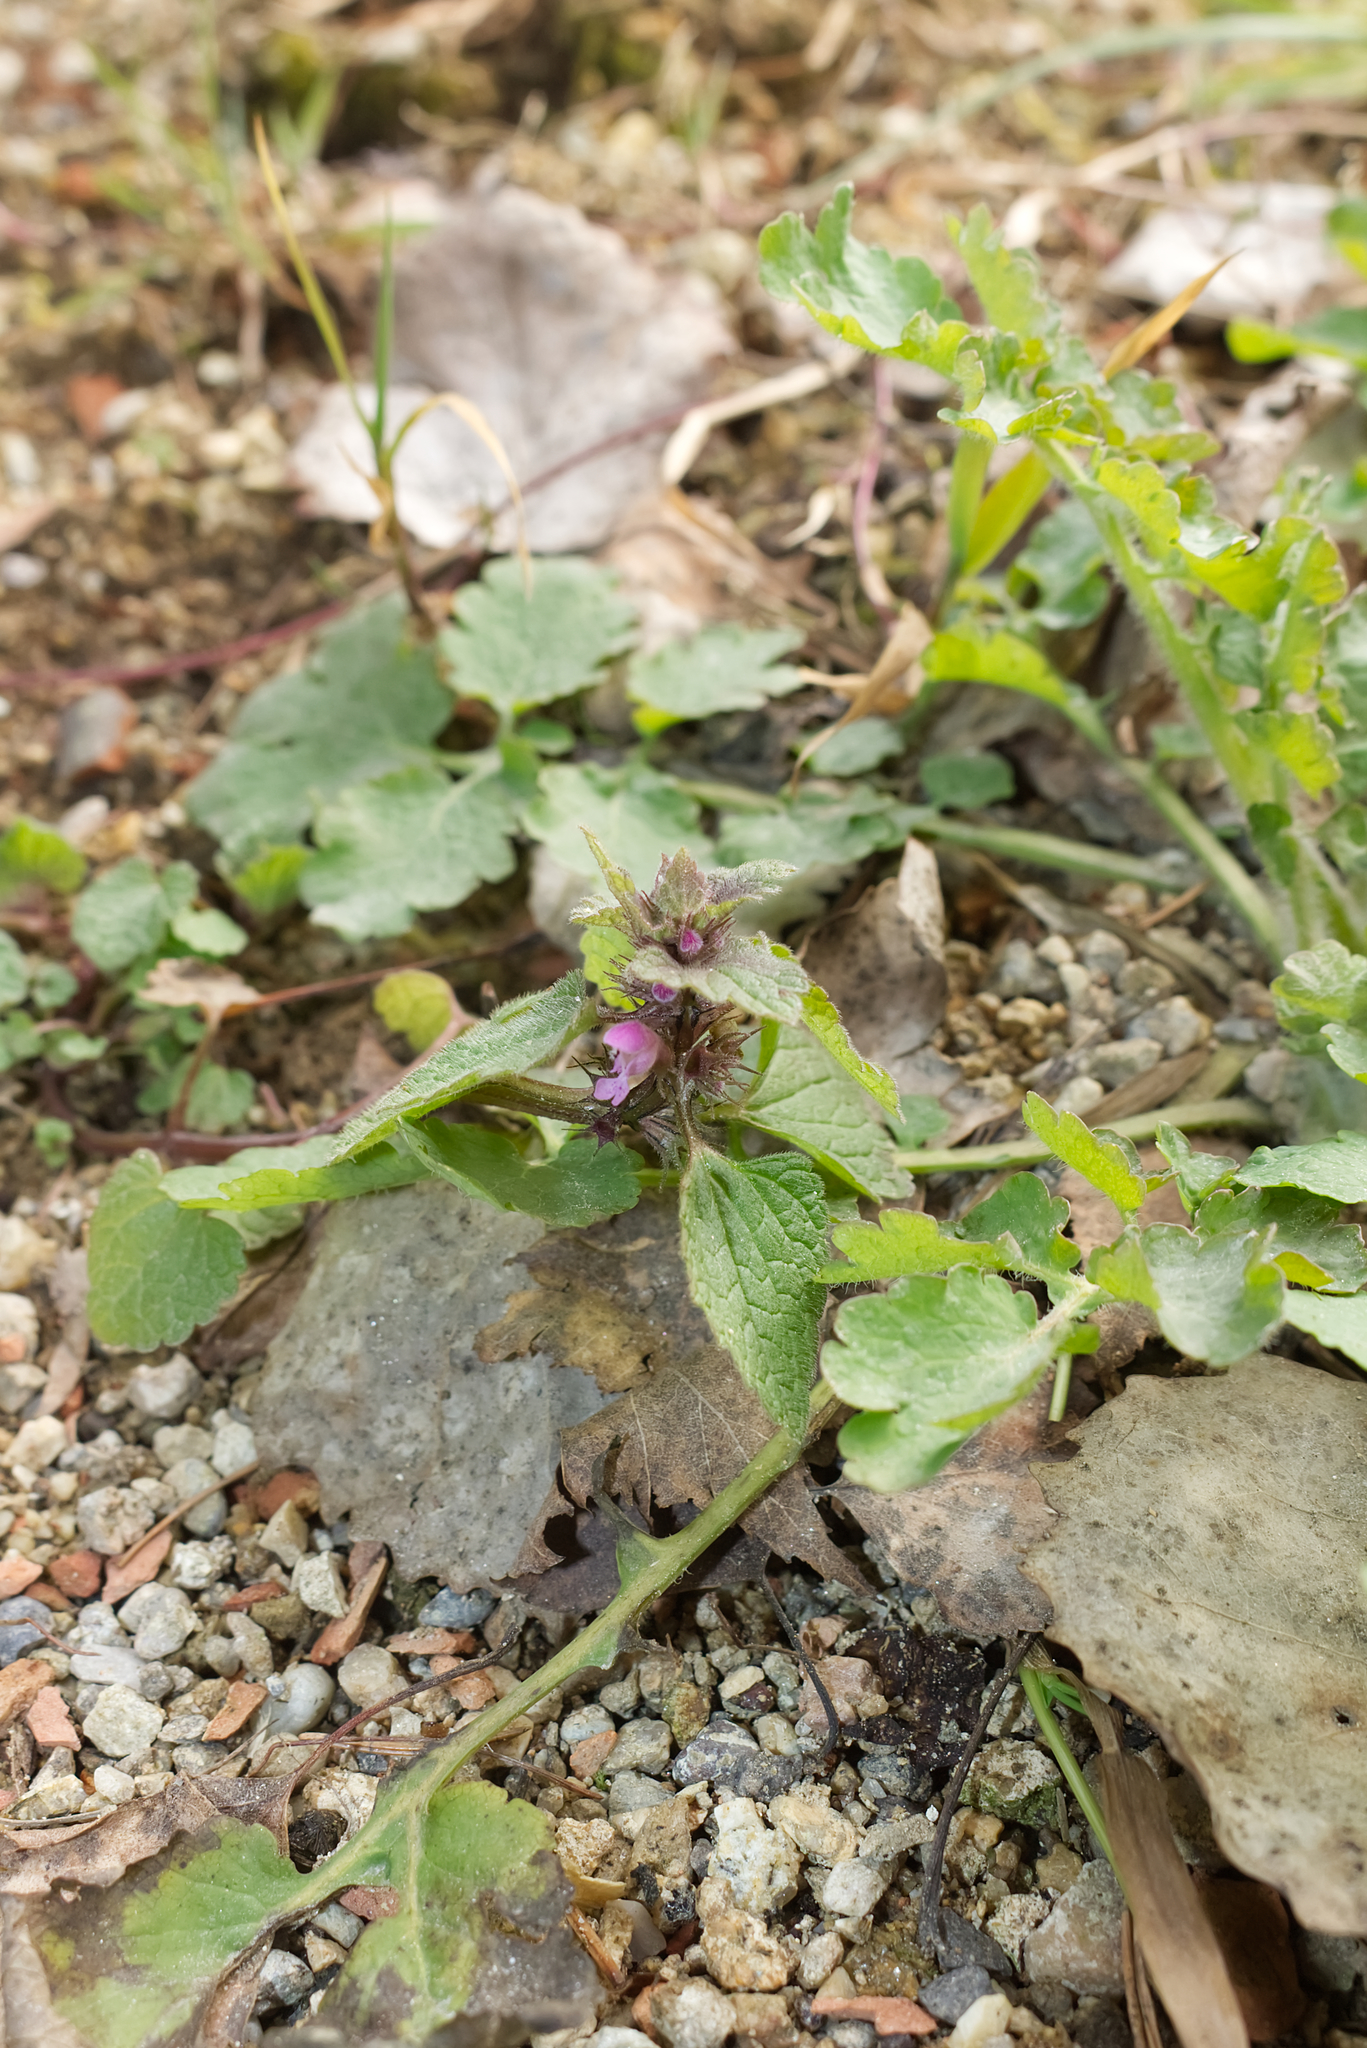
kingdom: Plantae
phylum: Tracheophyta
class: Magnoliopsida
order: Lamiales
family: Lamiaceae
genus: Lamium
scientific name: Lamium purpureum
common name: Red dead-nettle
